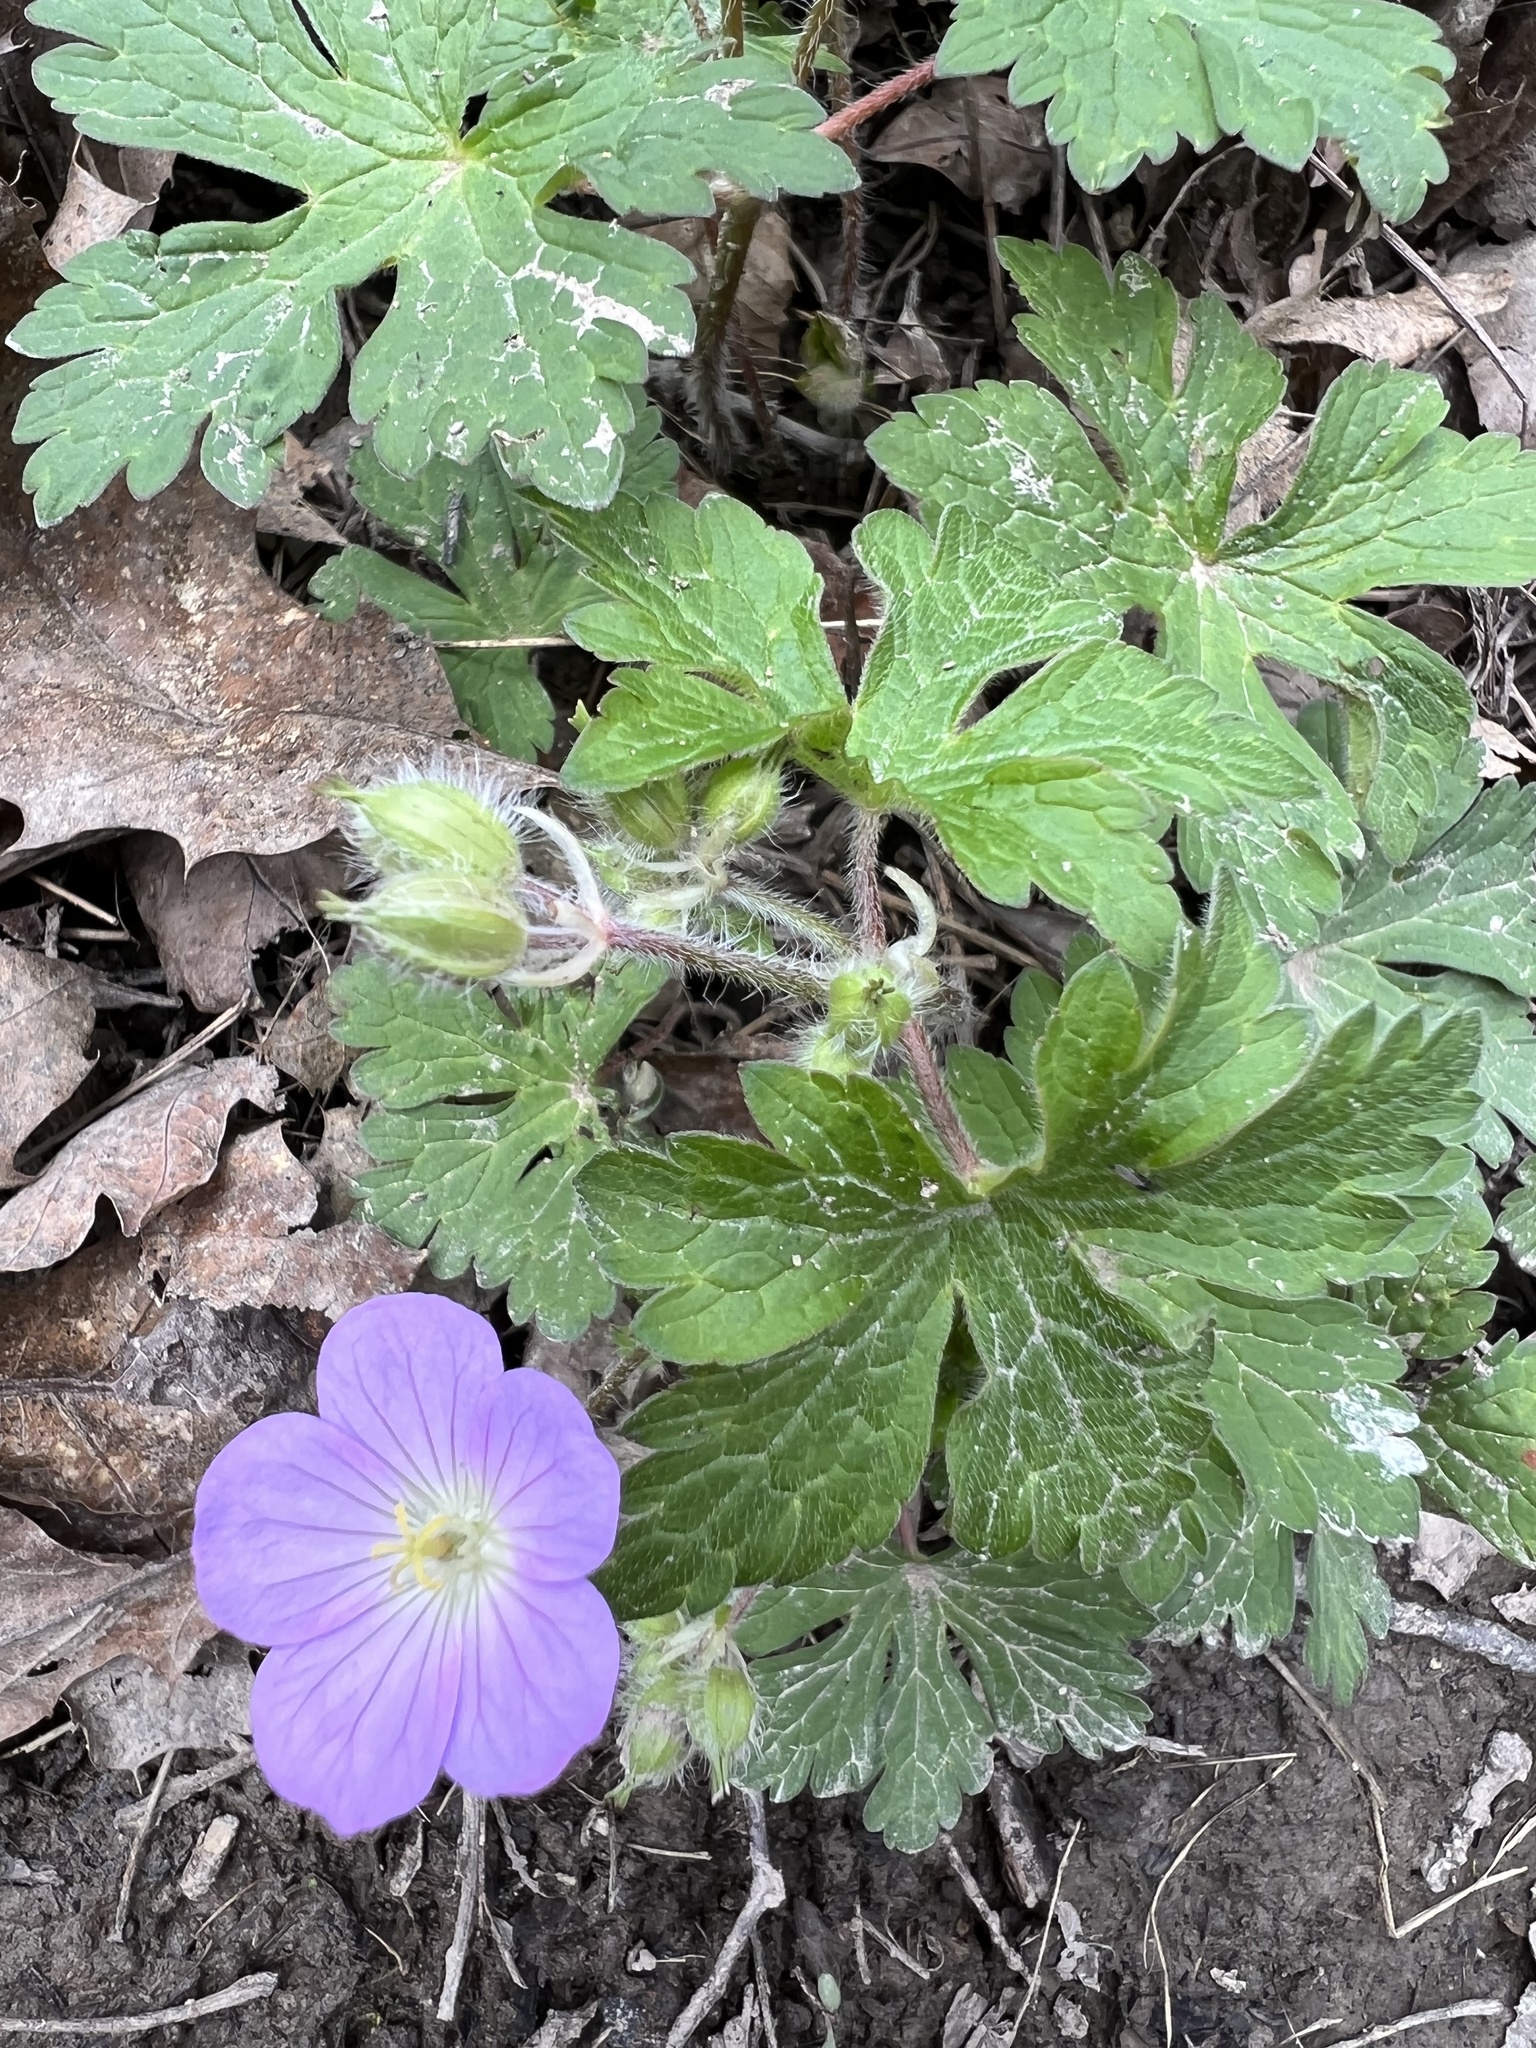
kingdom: Plantae
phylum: Tracheophyta
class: Magnoliopsida
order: Geraniales
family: Geraniaceae
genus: Geranium
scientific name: Geranium maculatum
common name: Spotted geranium
